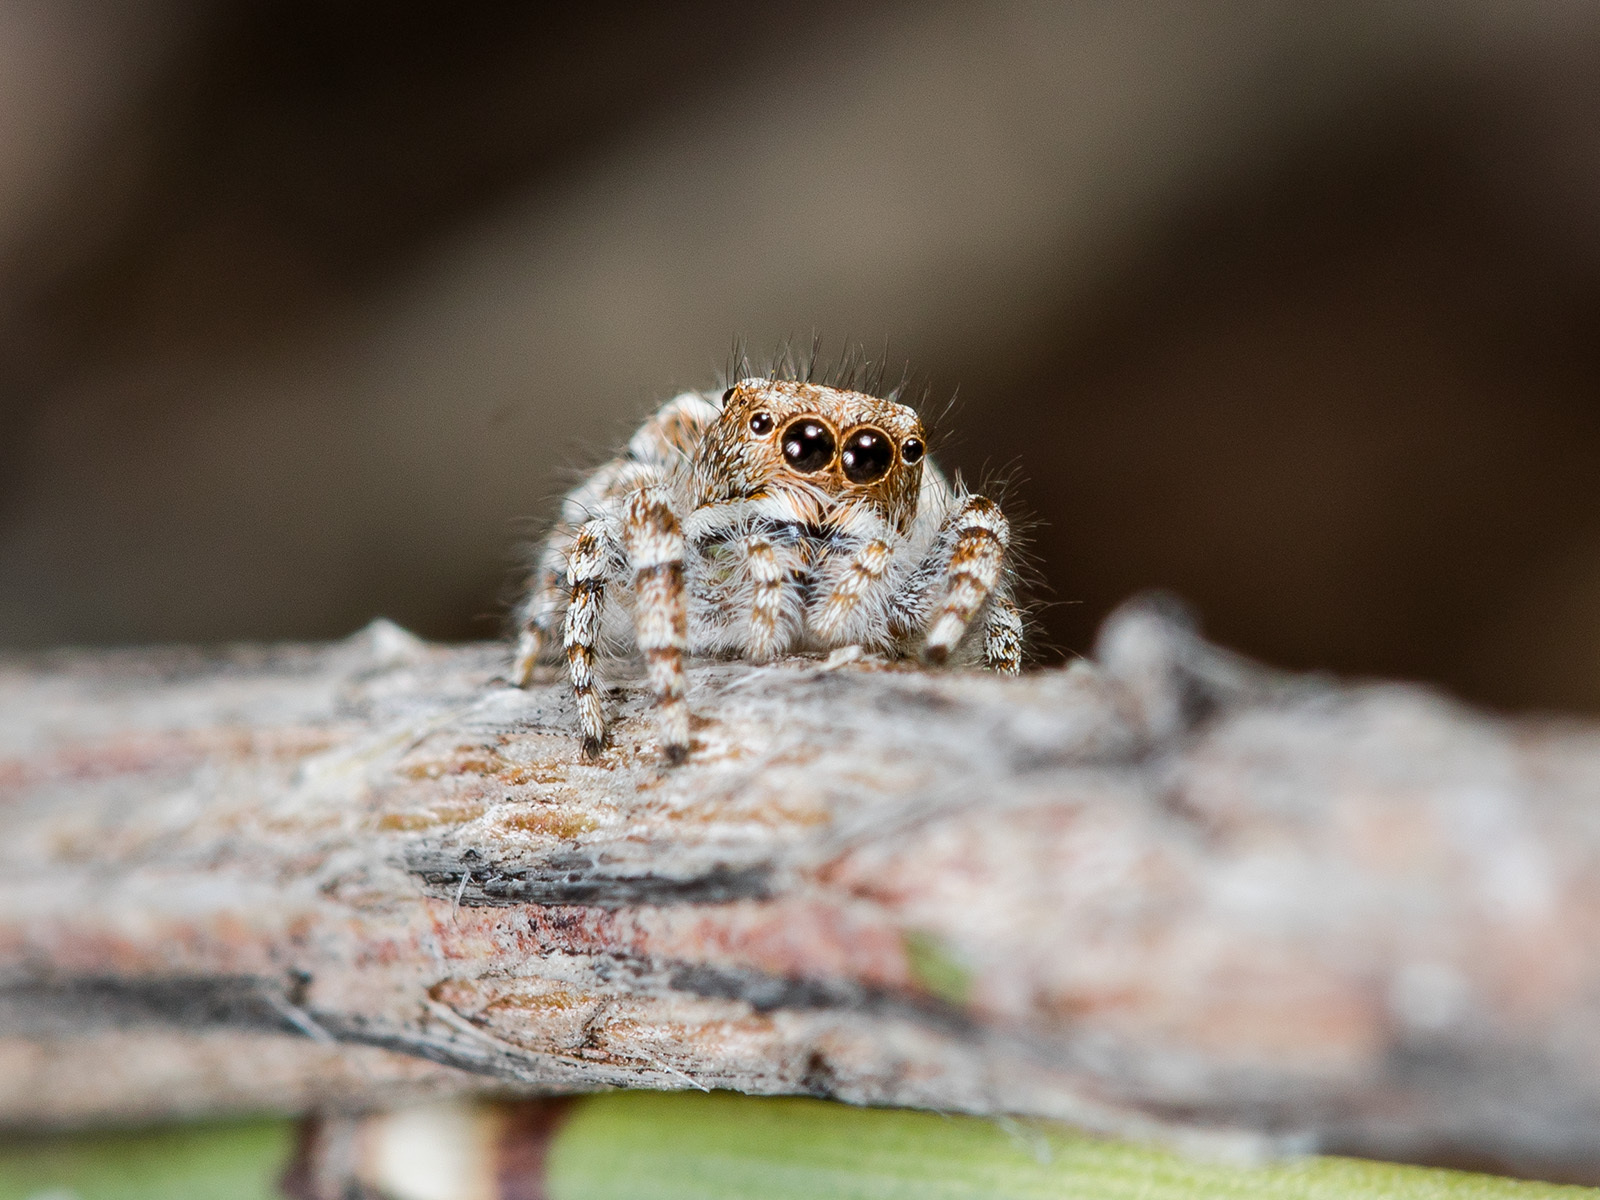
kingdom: Animalia
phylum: Arthropoda
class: Arachnida
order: Araneae
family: Salticidae
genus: Pseudomogrus
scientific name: Pseudomogrus pseudovalidus
